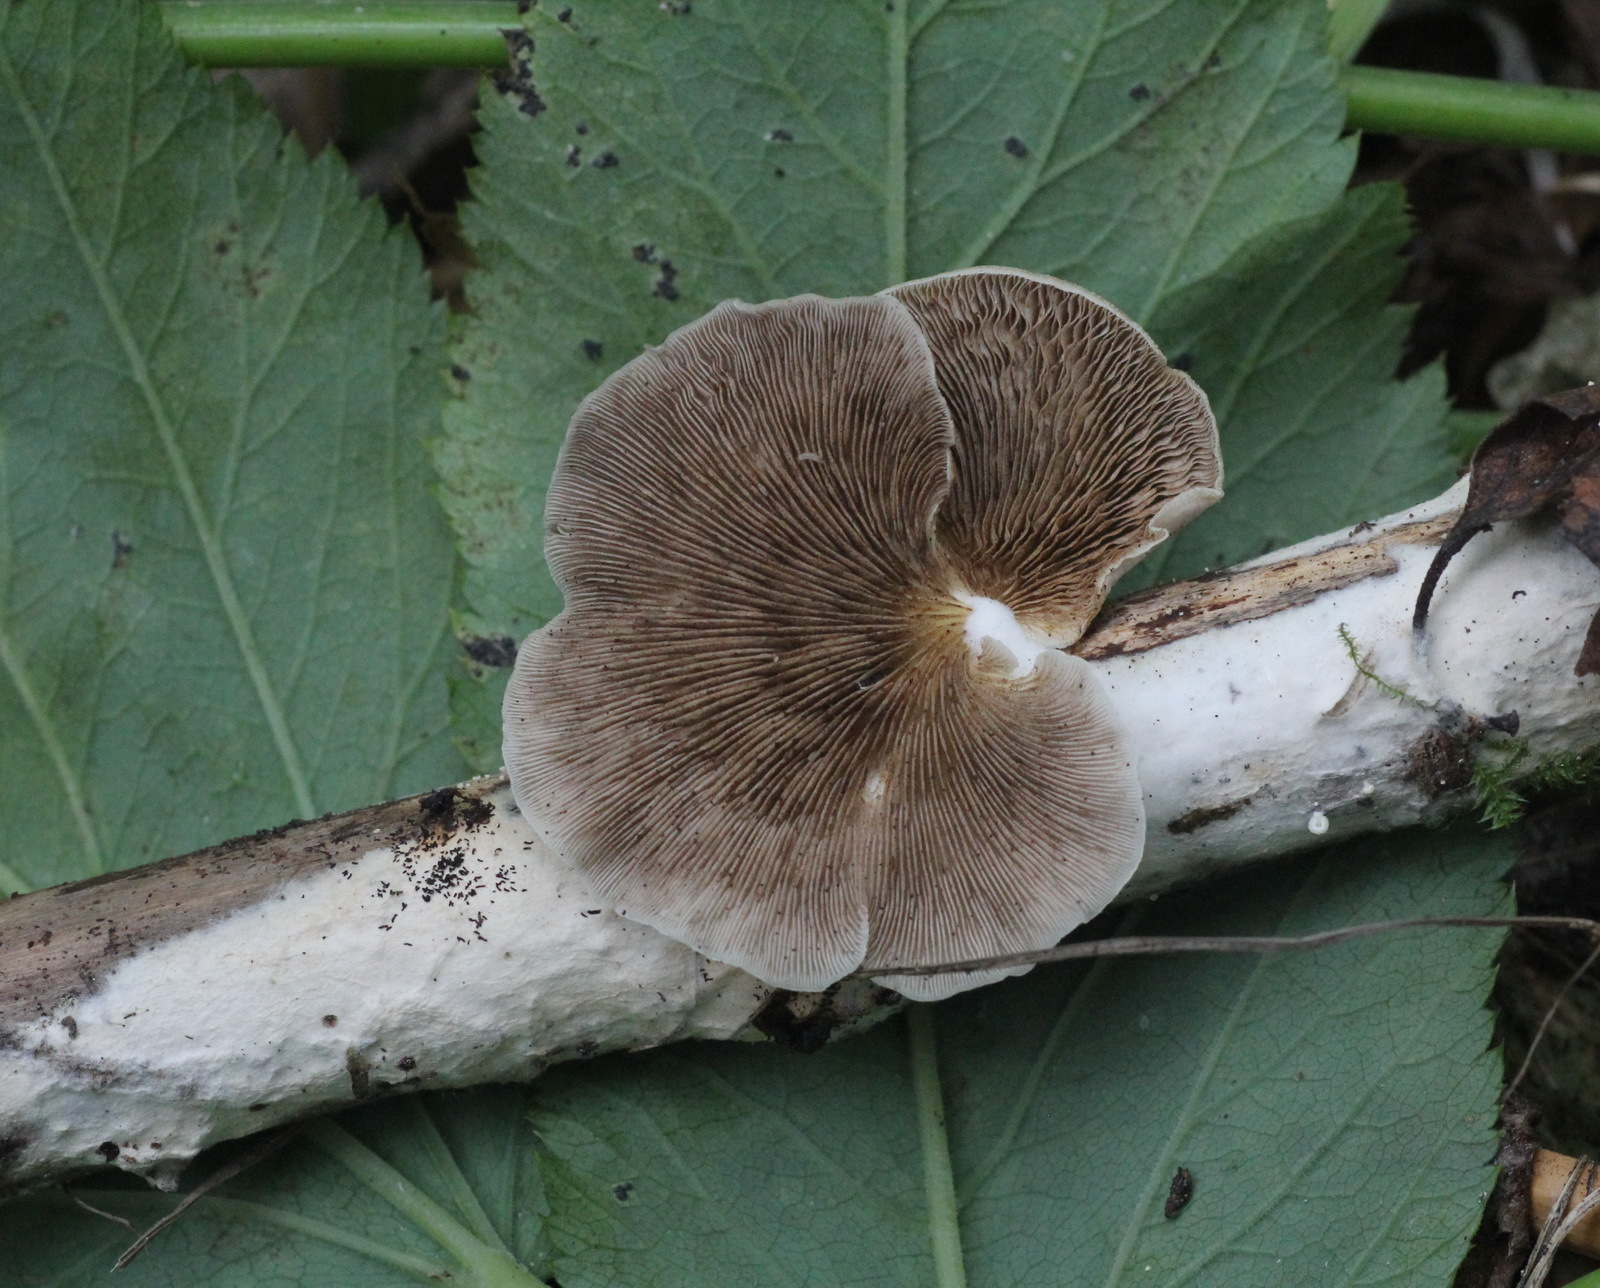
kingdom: Fungi
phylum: Basidiomycota
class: Agaricomycetes
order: Agaricales
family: Crepidotaceae
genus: Crepidotus
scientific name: Crepidotus mollis
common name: Peeling oysterling
